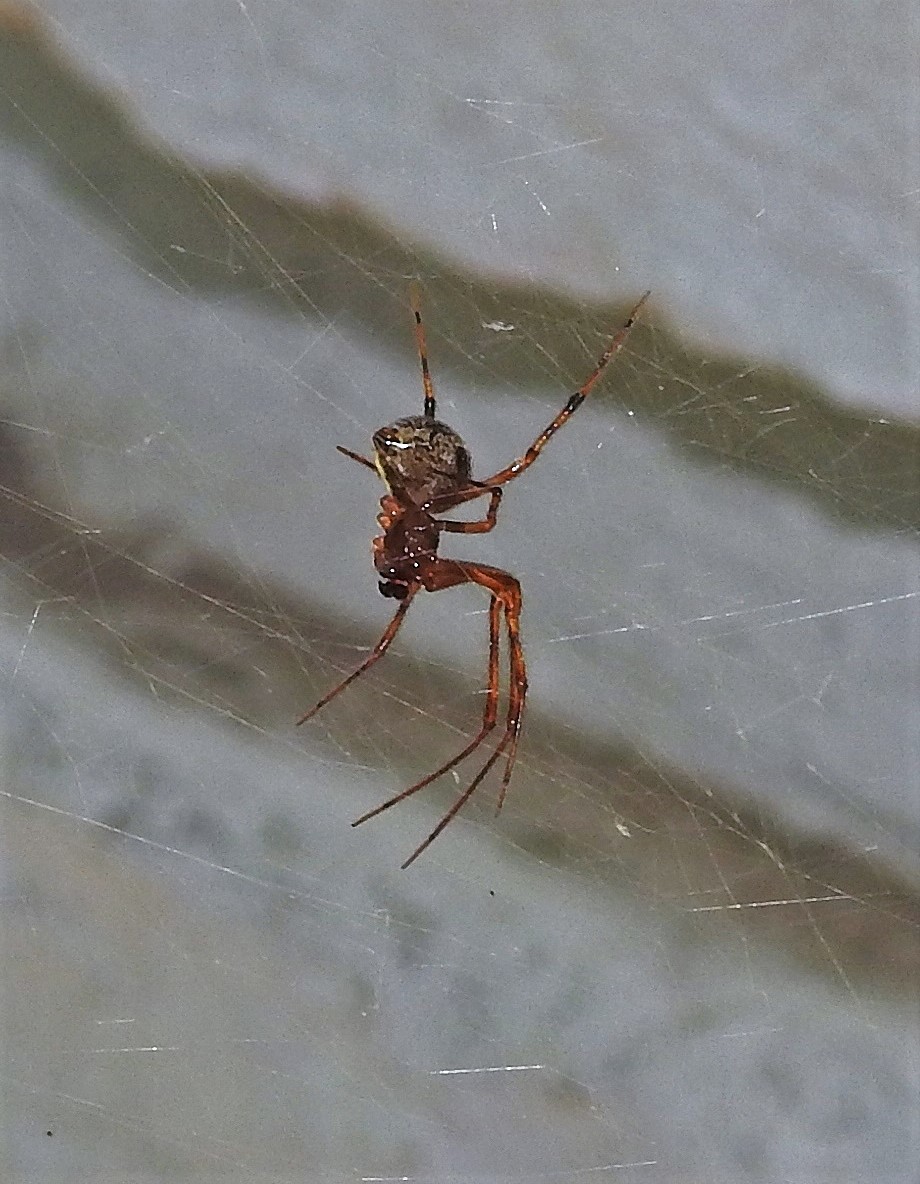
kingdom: Animalia
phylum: Arthropoda
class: Arachnida
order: Araneae
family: Theridiidae
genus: Parasteatoda
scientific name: Parasteatoda tepidariorum
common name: Common house spider
